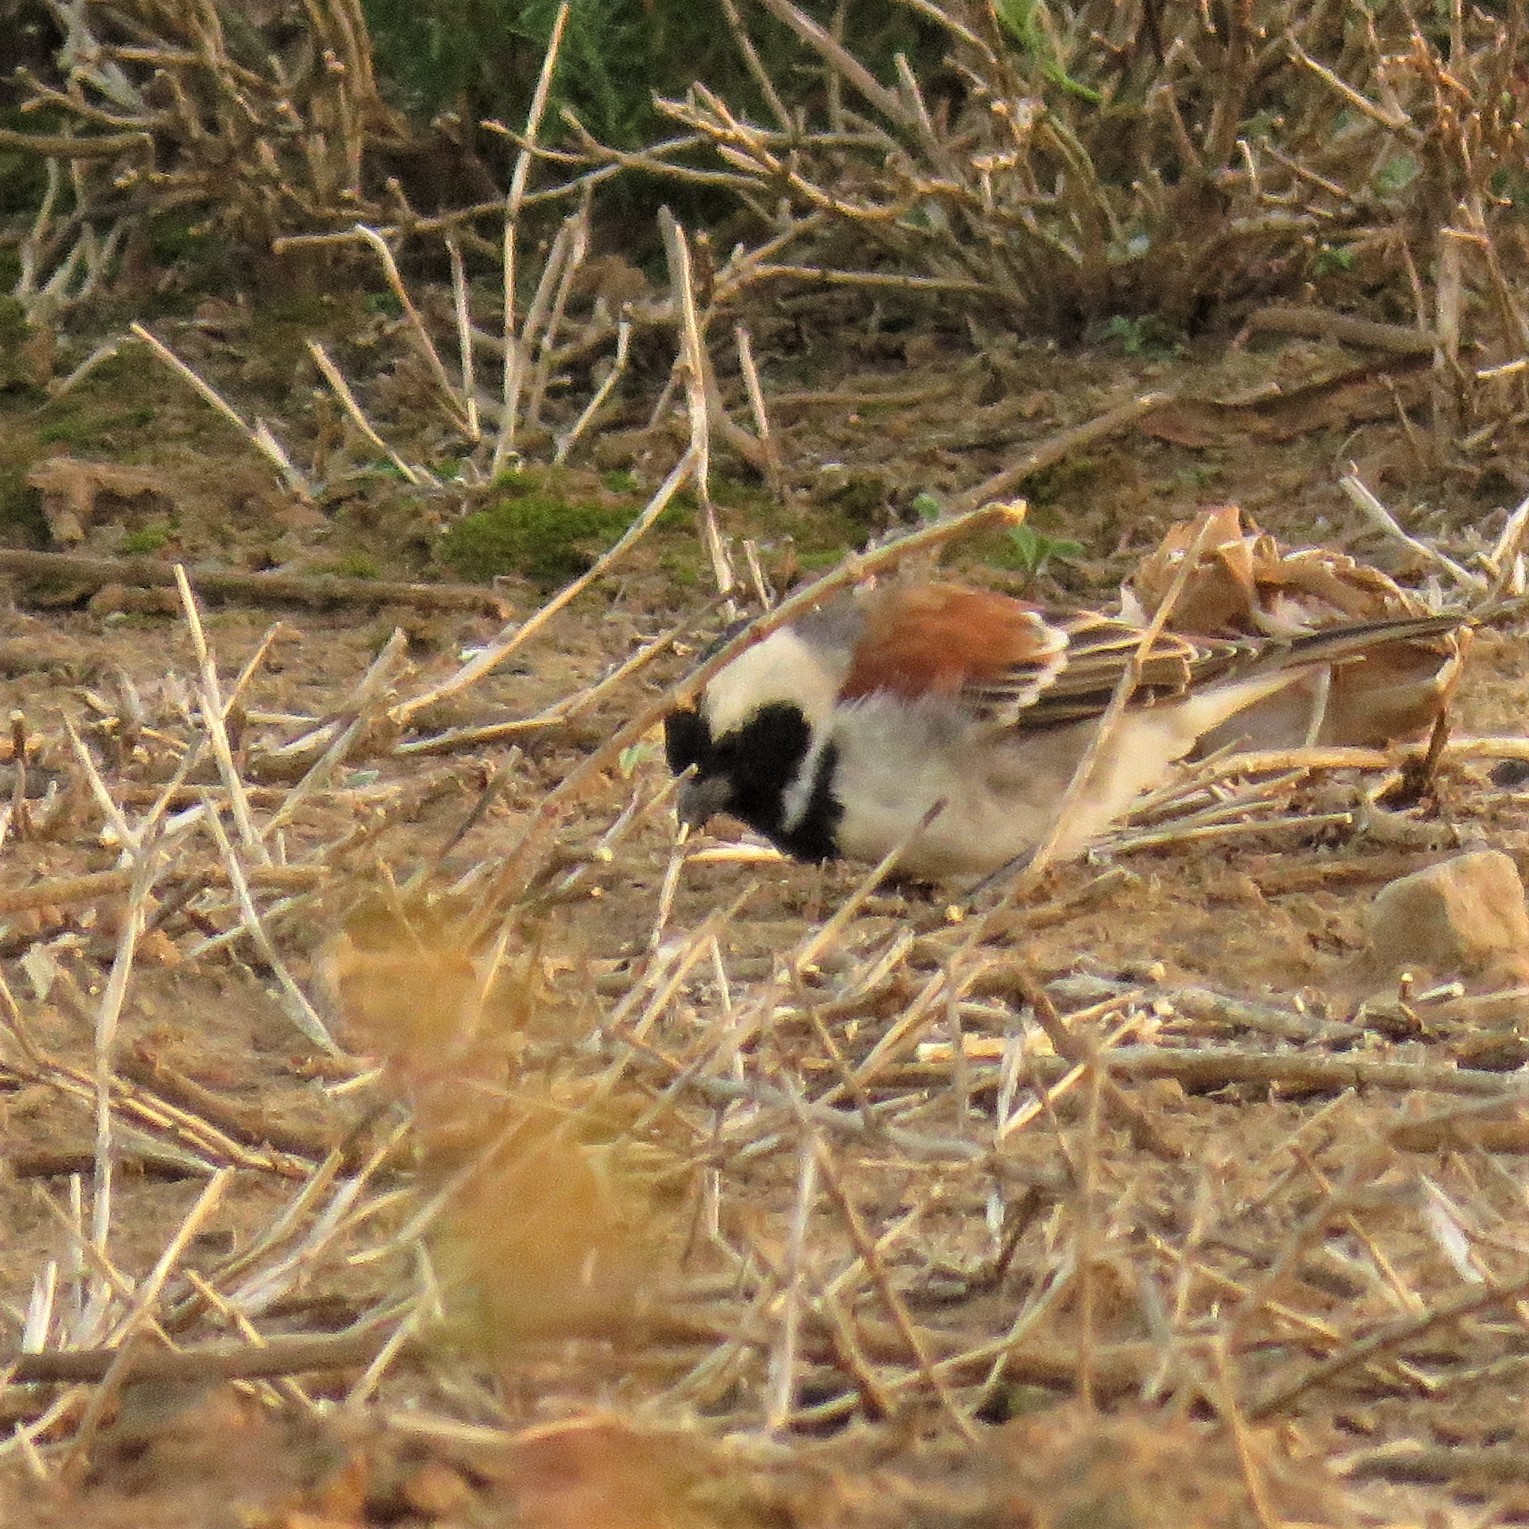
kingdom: Animalia
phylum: Chordata
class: Aves
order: Passeriformes
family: Passeridae
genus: Passer
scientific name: Passer melanurus
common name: Cape sparrow
